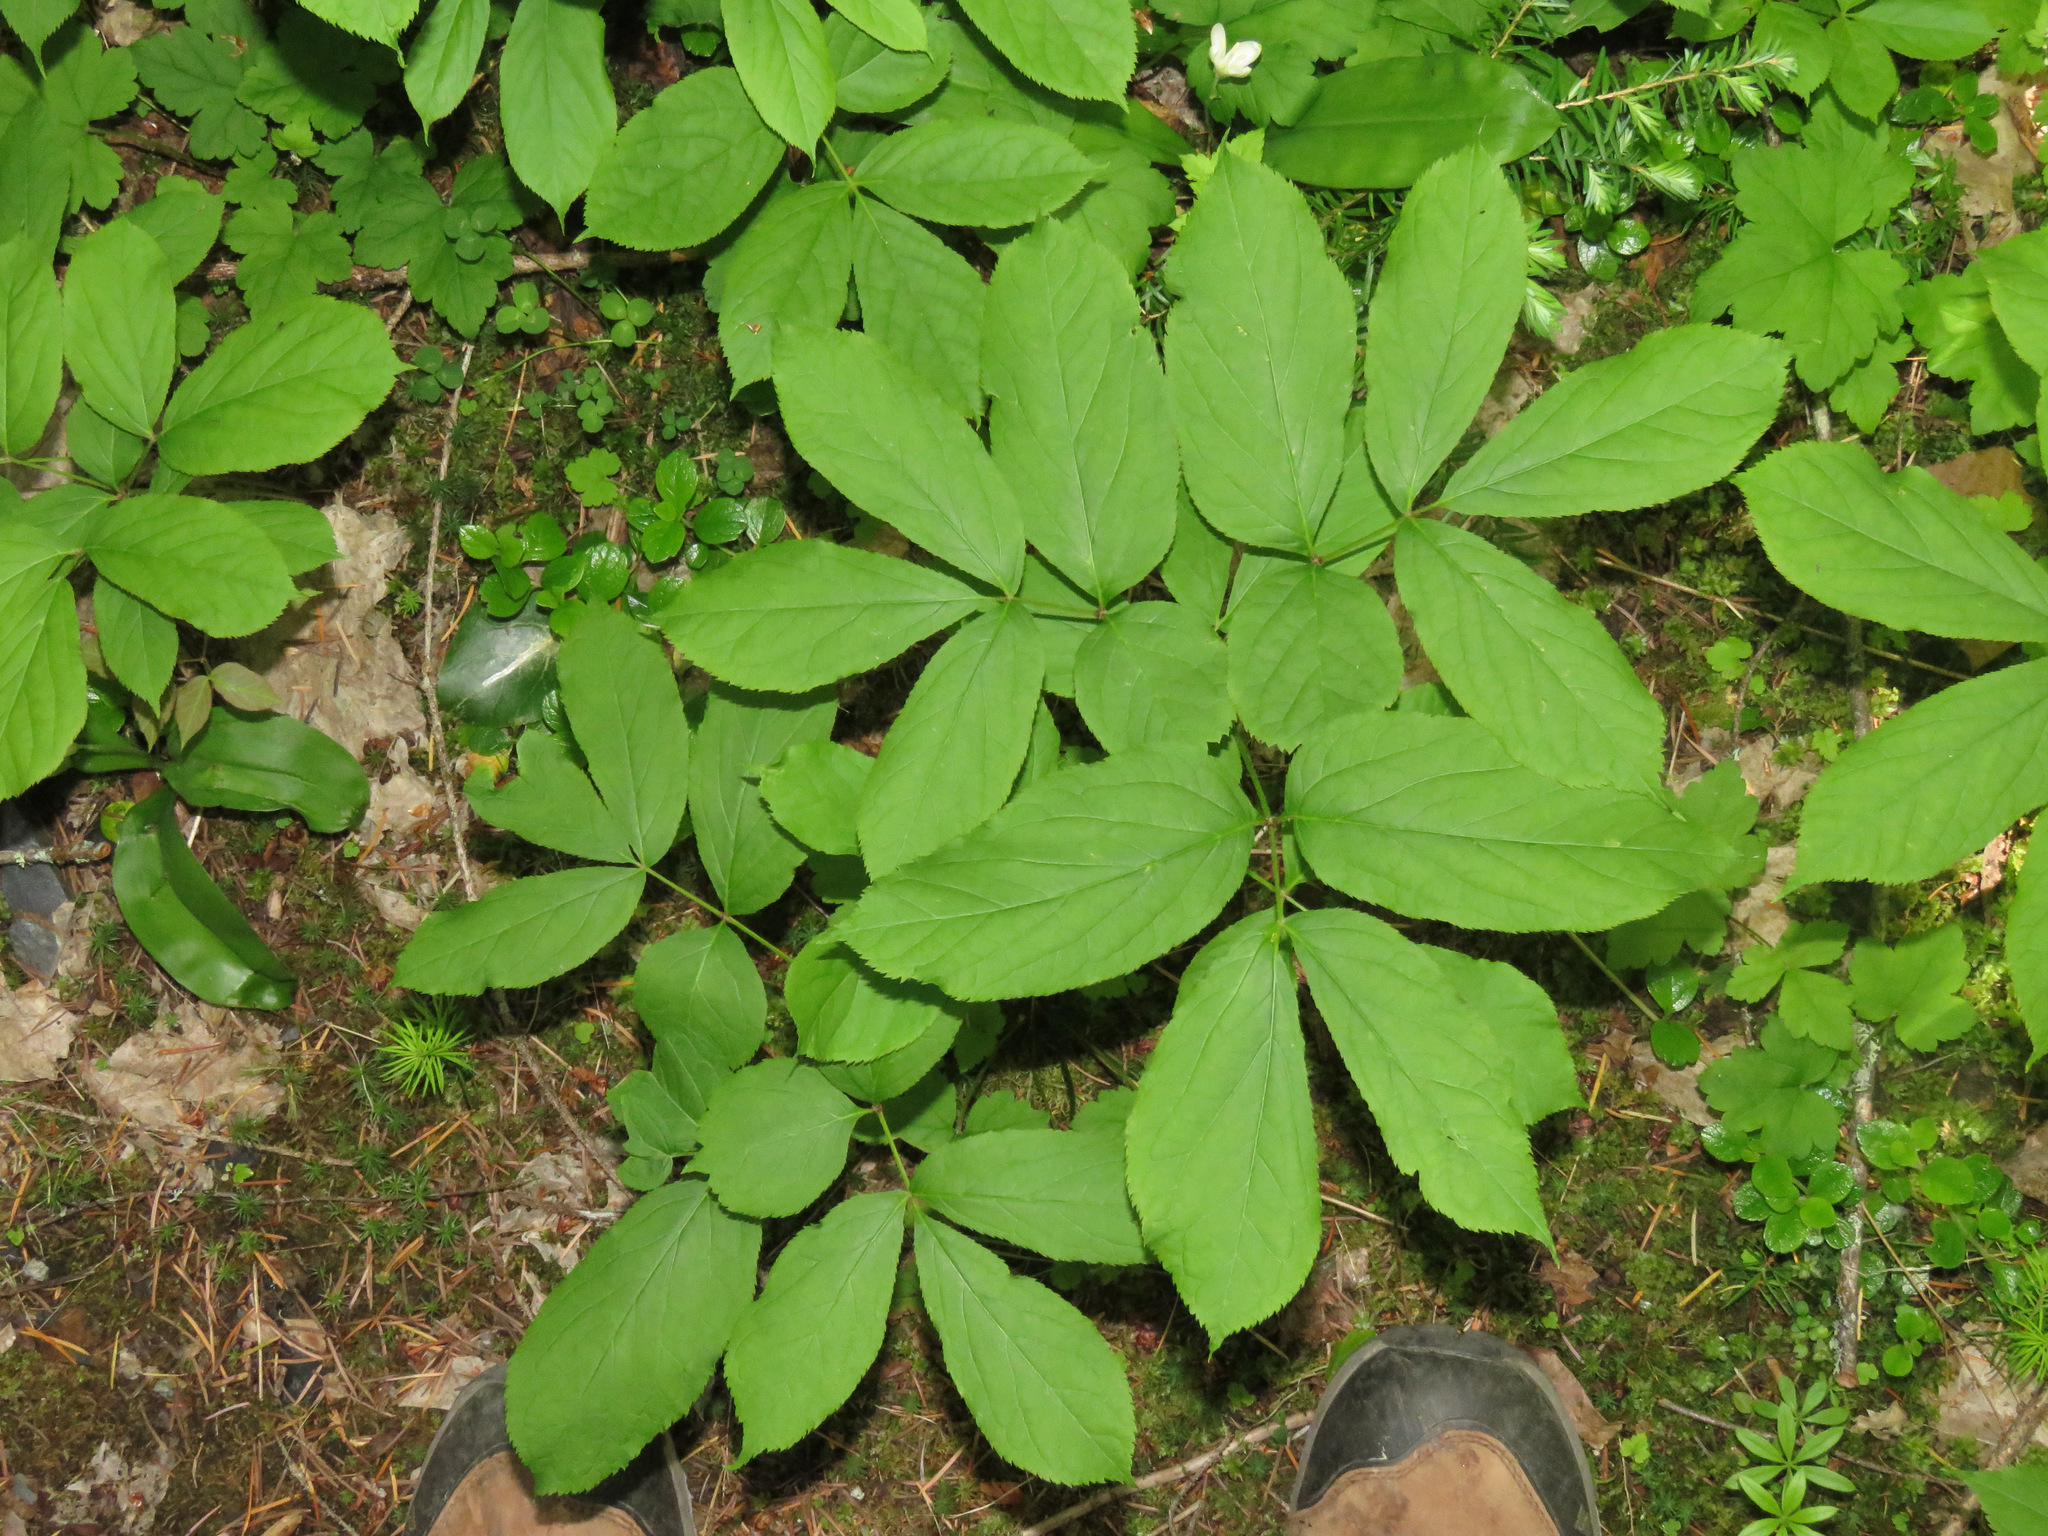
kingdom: Plantae
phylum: Tracheophyta
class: Magnoliopsida
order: Apiales
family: Araliaceae
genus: Aralia
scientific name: Aralia nudicaulis
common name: Wild sarsaparilla
